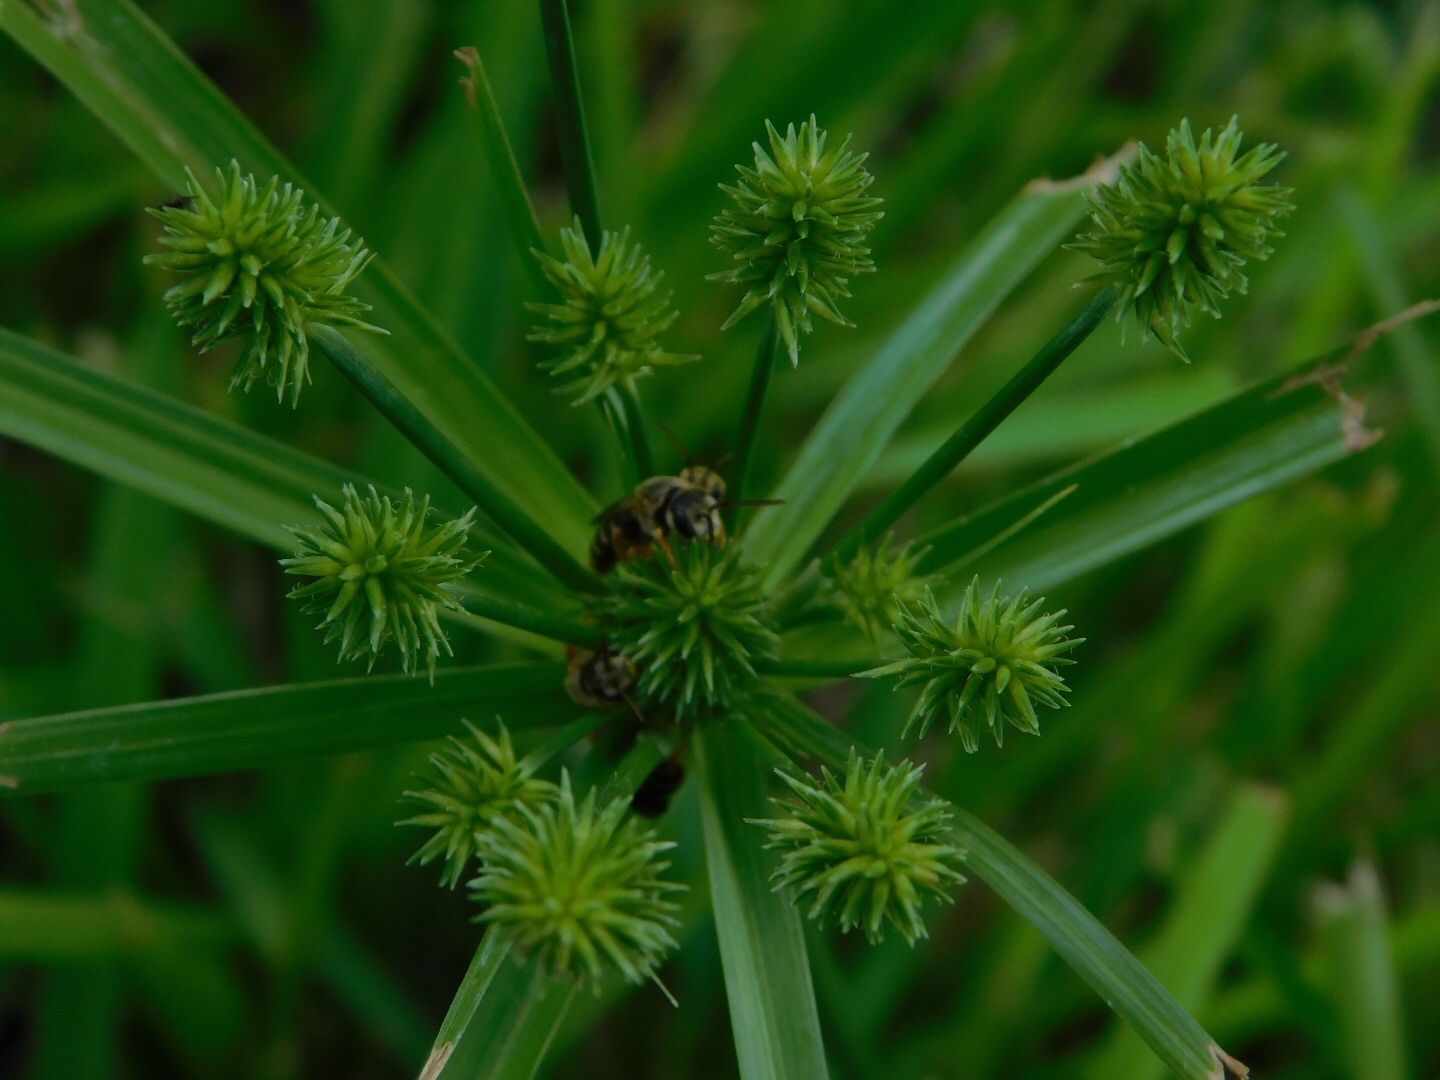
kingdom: Animalia
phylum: Arthropoda
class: Insecta
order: Hymenoptera
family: Halictidae
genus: Halictus
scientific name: Halictus poeyi
